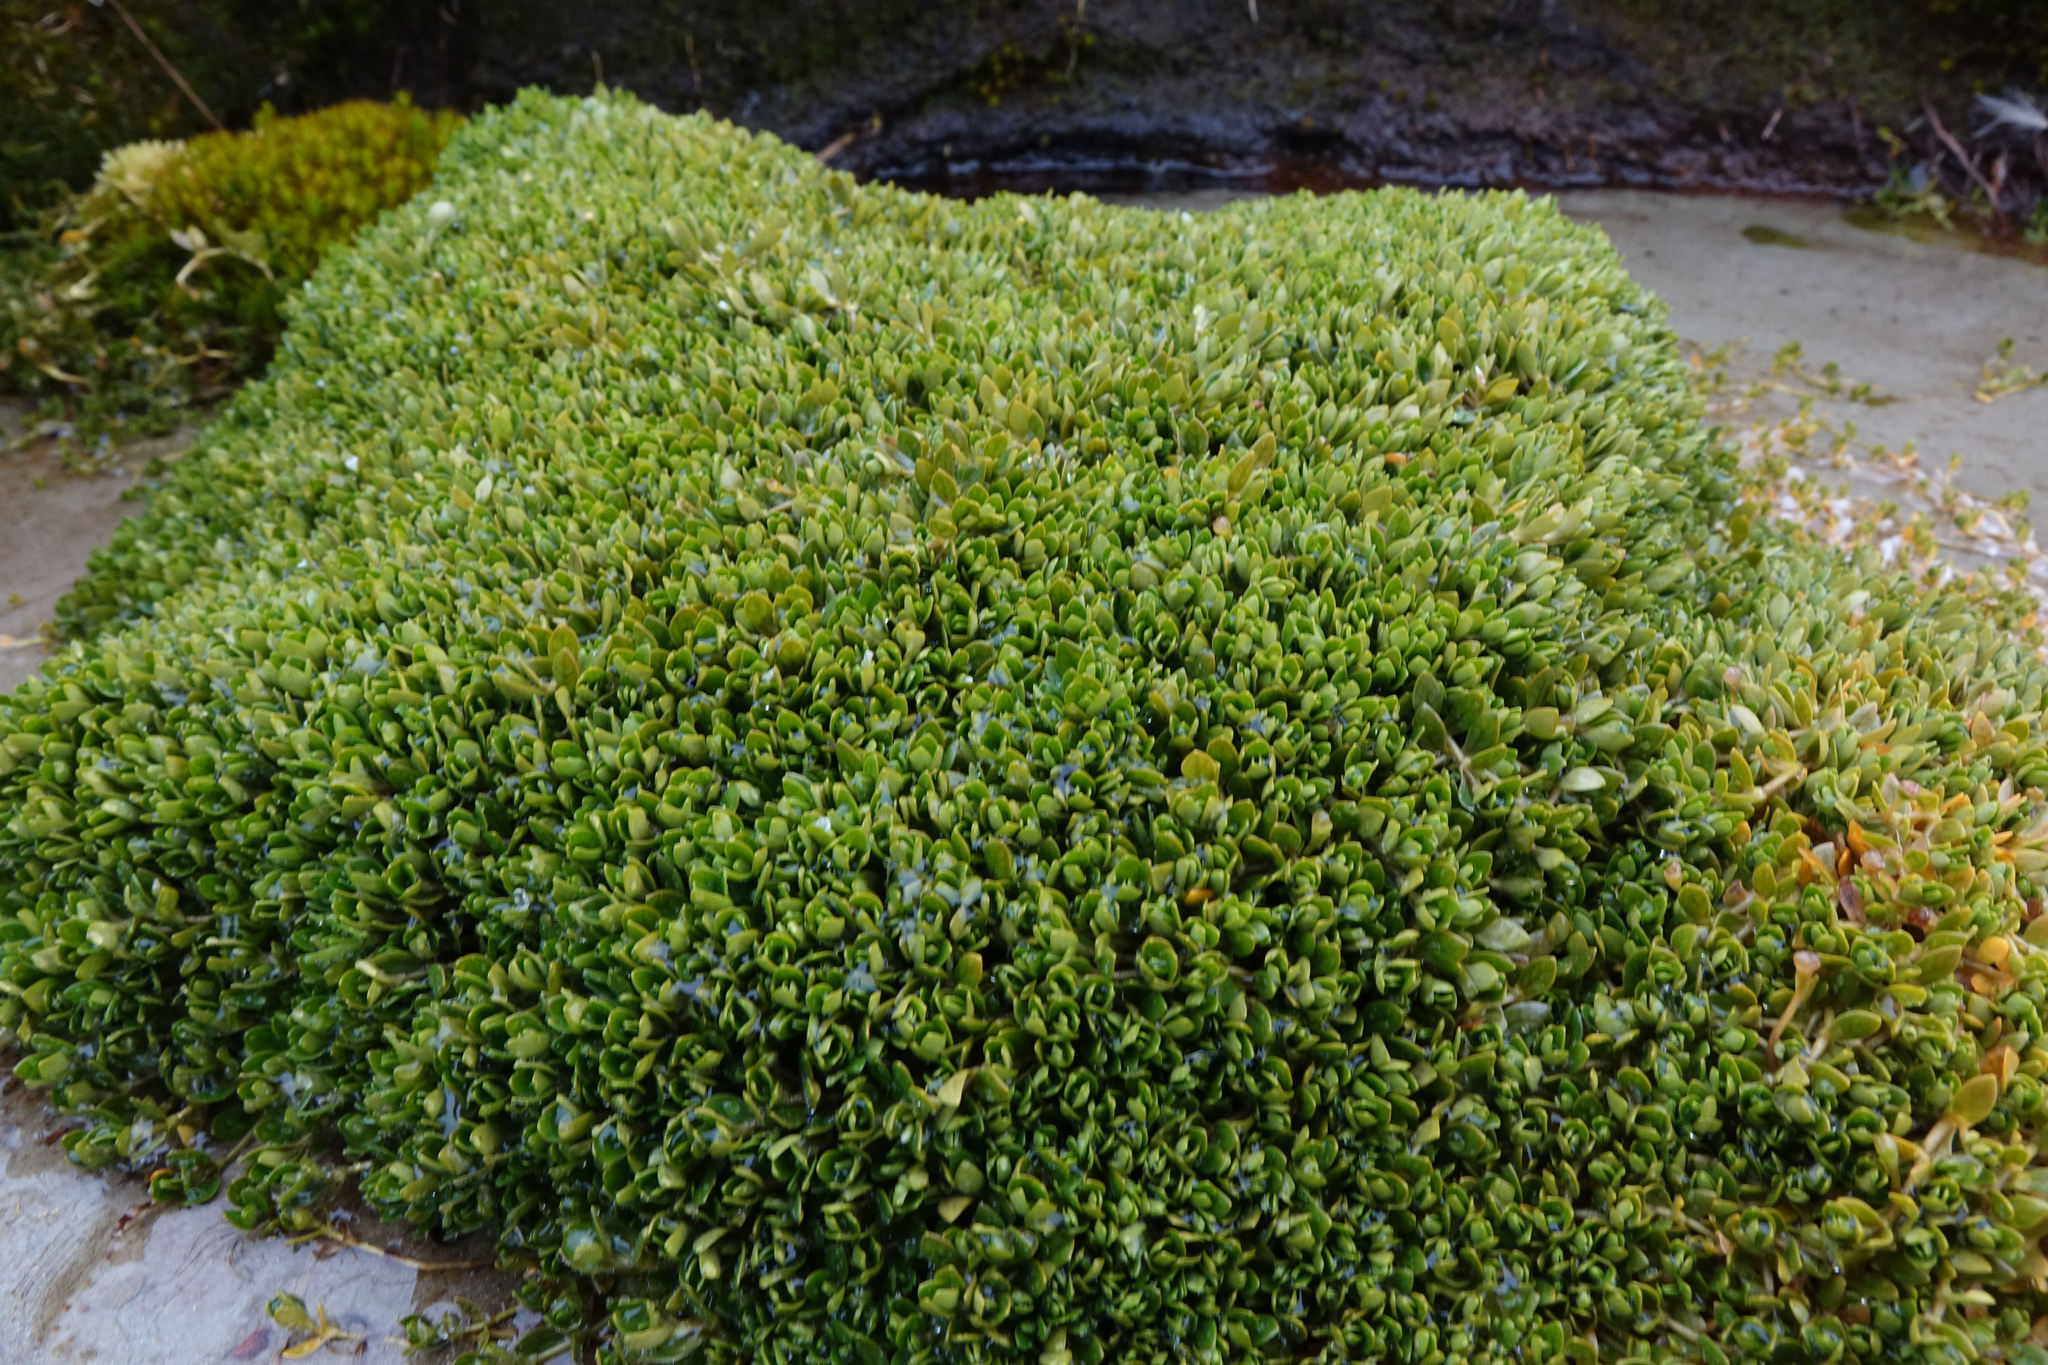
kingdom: Plantae
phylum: Tracheophyta
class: Magnoliopsida
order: Caryophyllales
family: Montiaceae
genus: Montia
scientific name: Montia fontana
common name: Blinks
